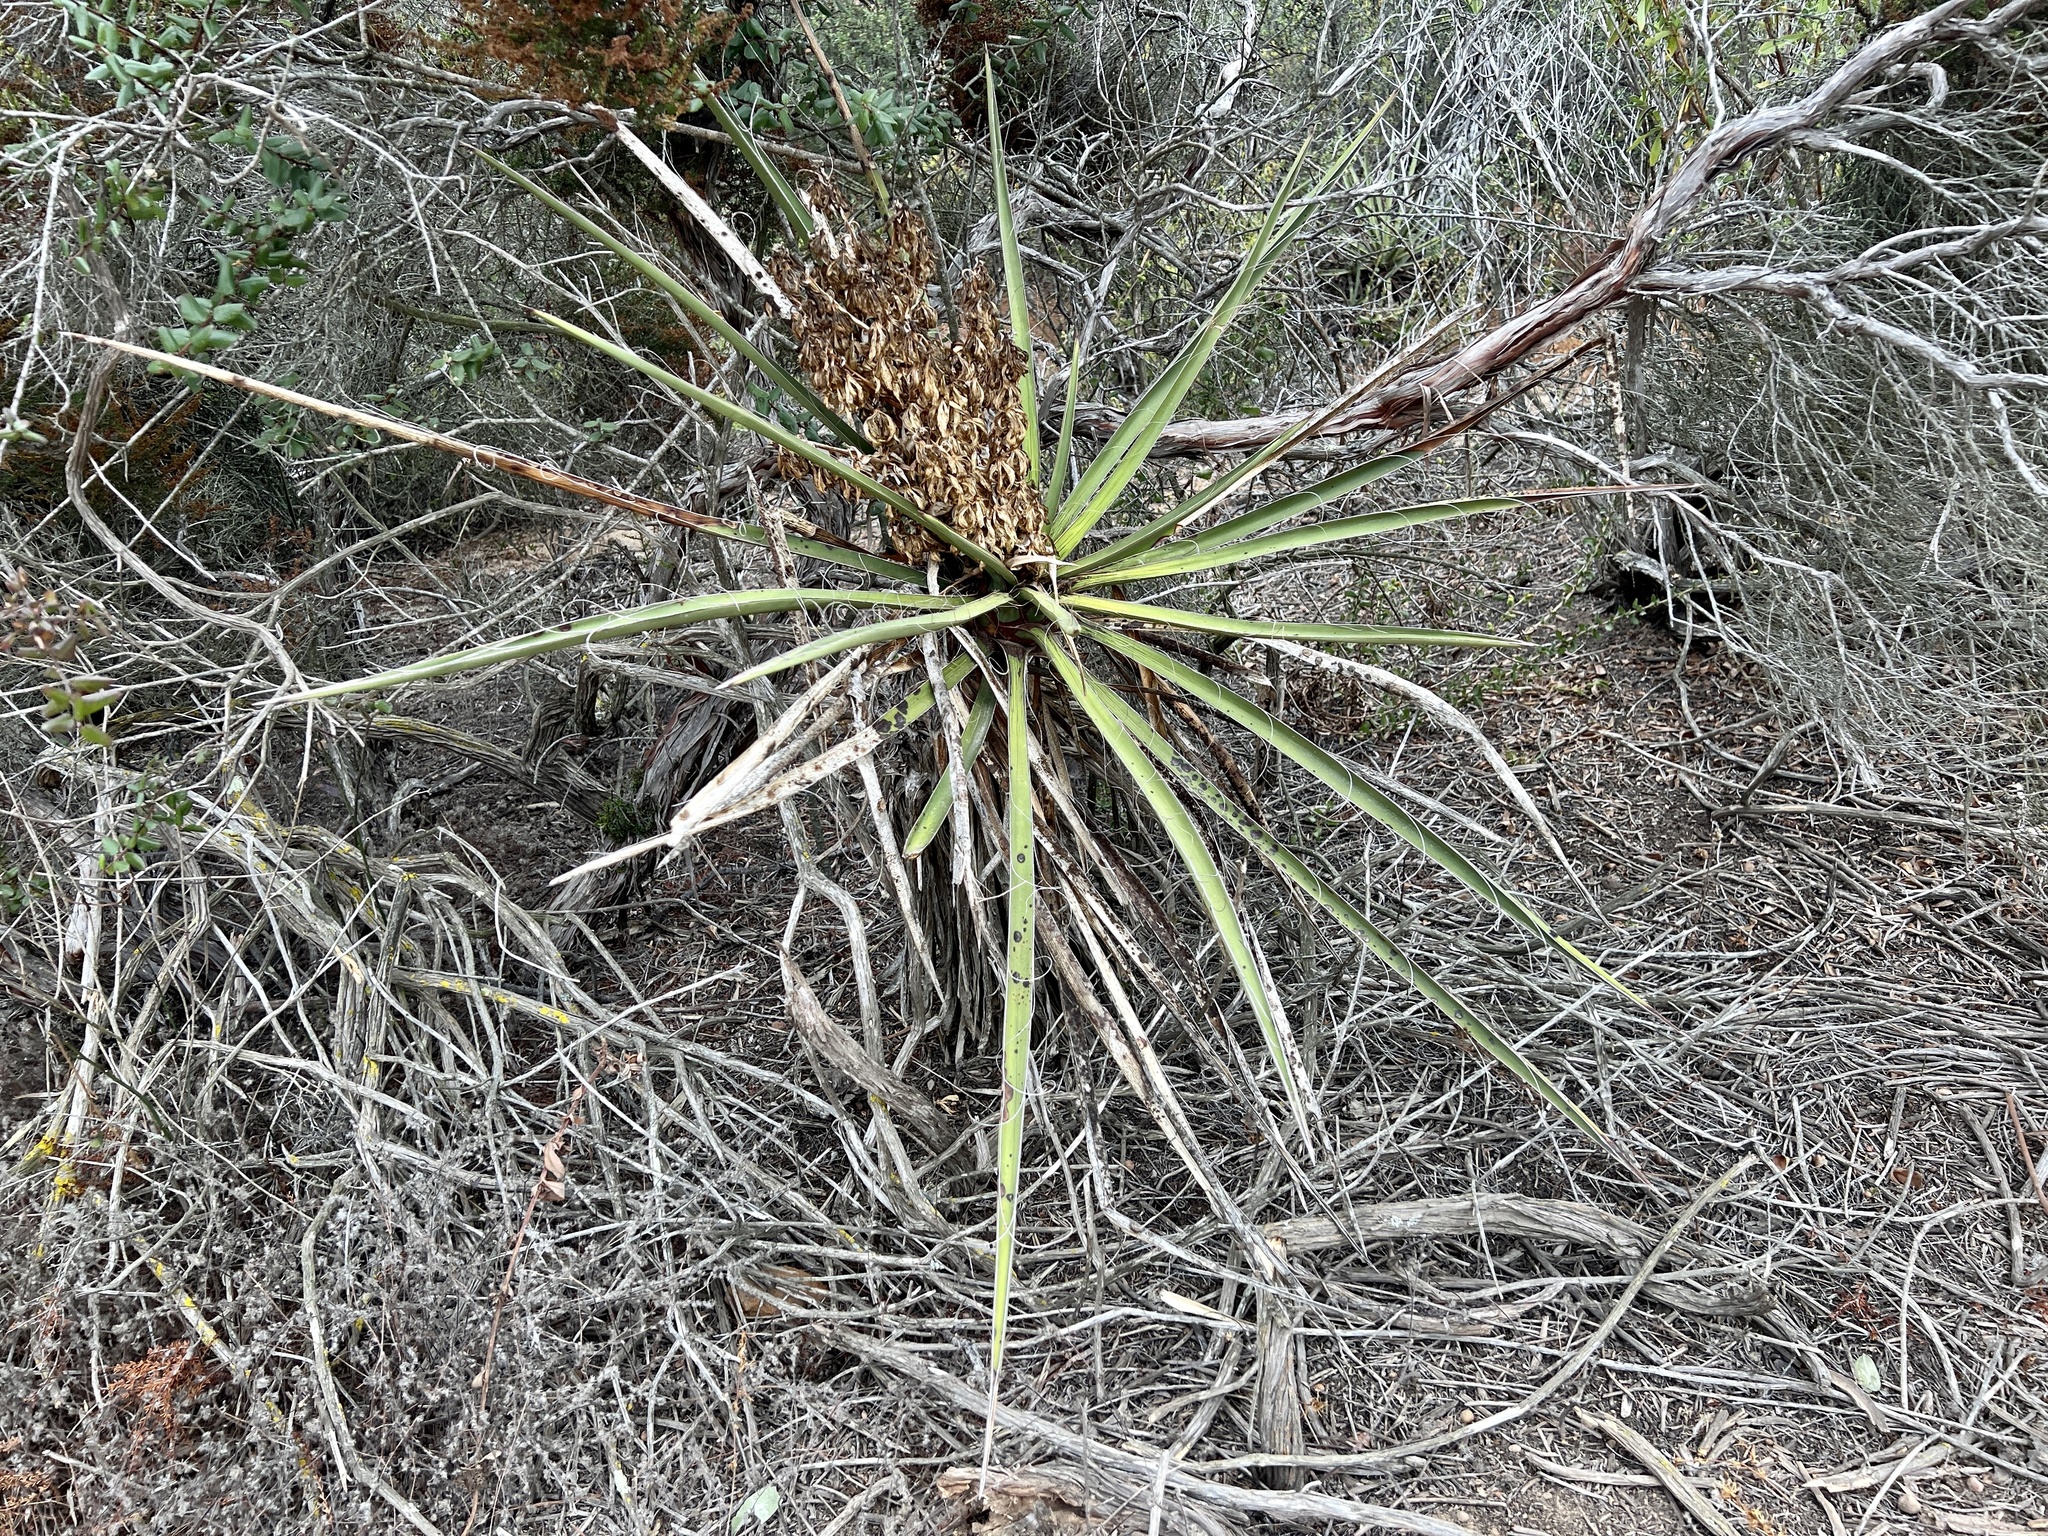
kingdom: Plantae
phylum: Tracheophyta
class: Liliopsida
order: Asparagales
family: Asparagaceae
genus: Yucca
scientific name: Yucca schidigera
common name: Mojave yucca
